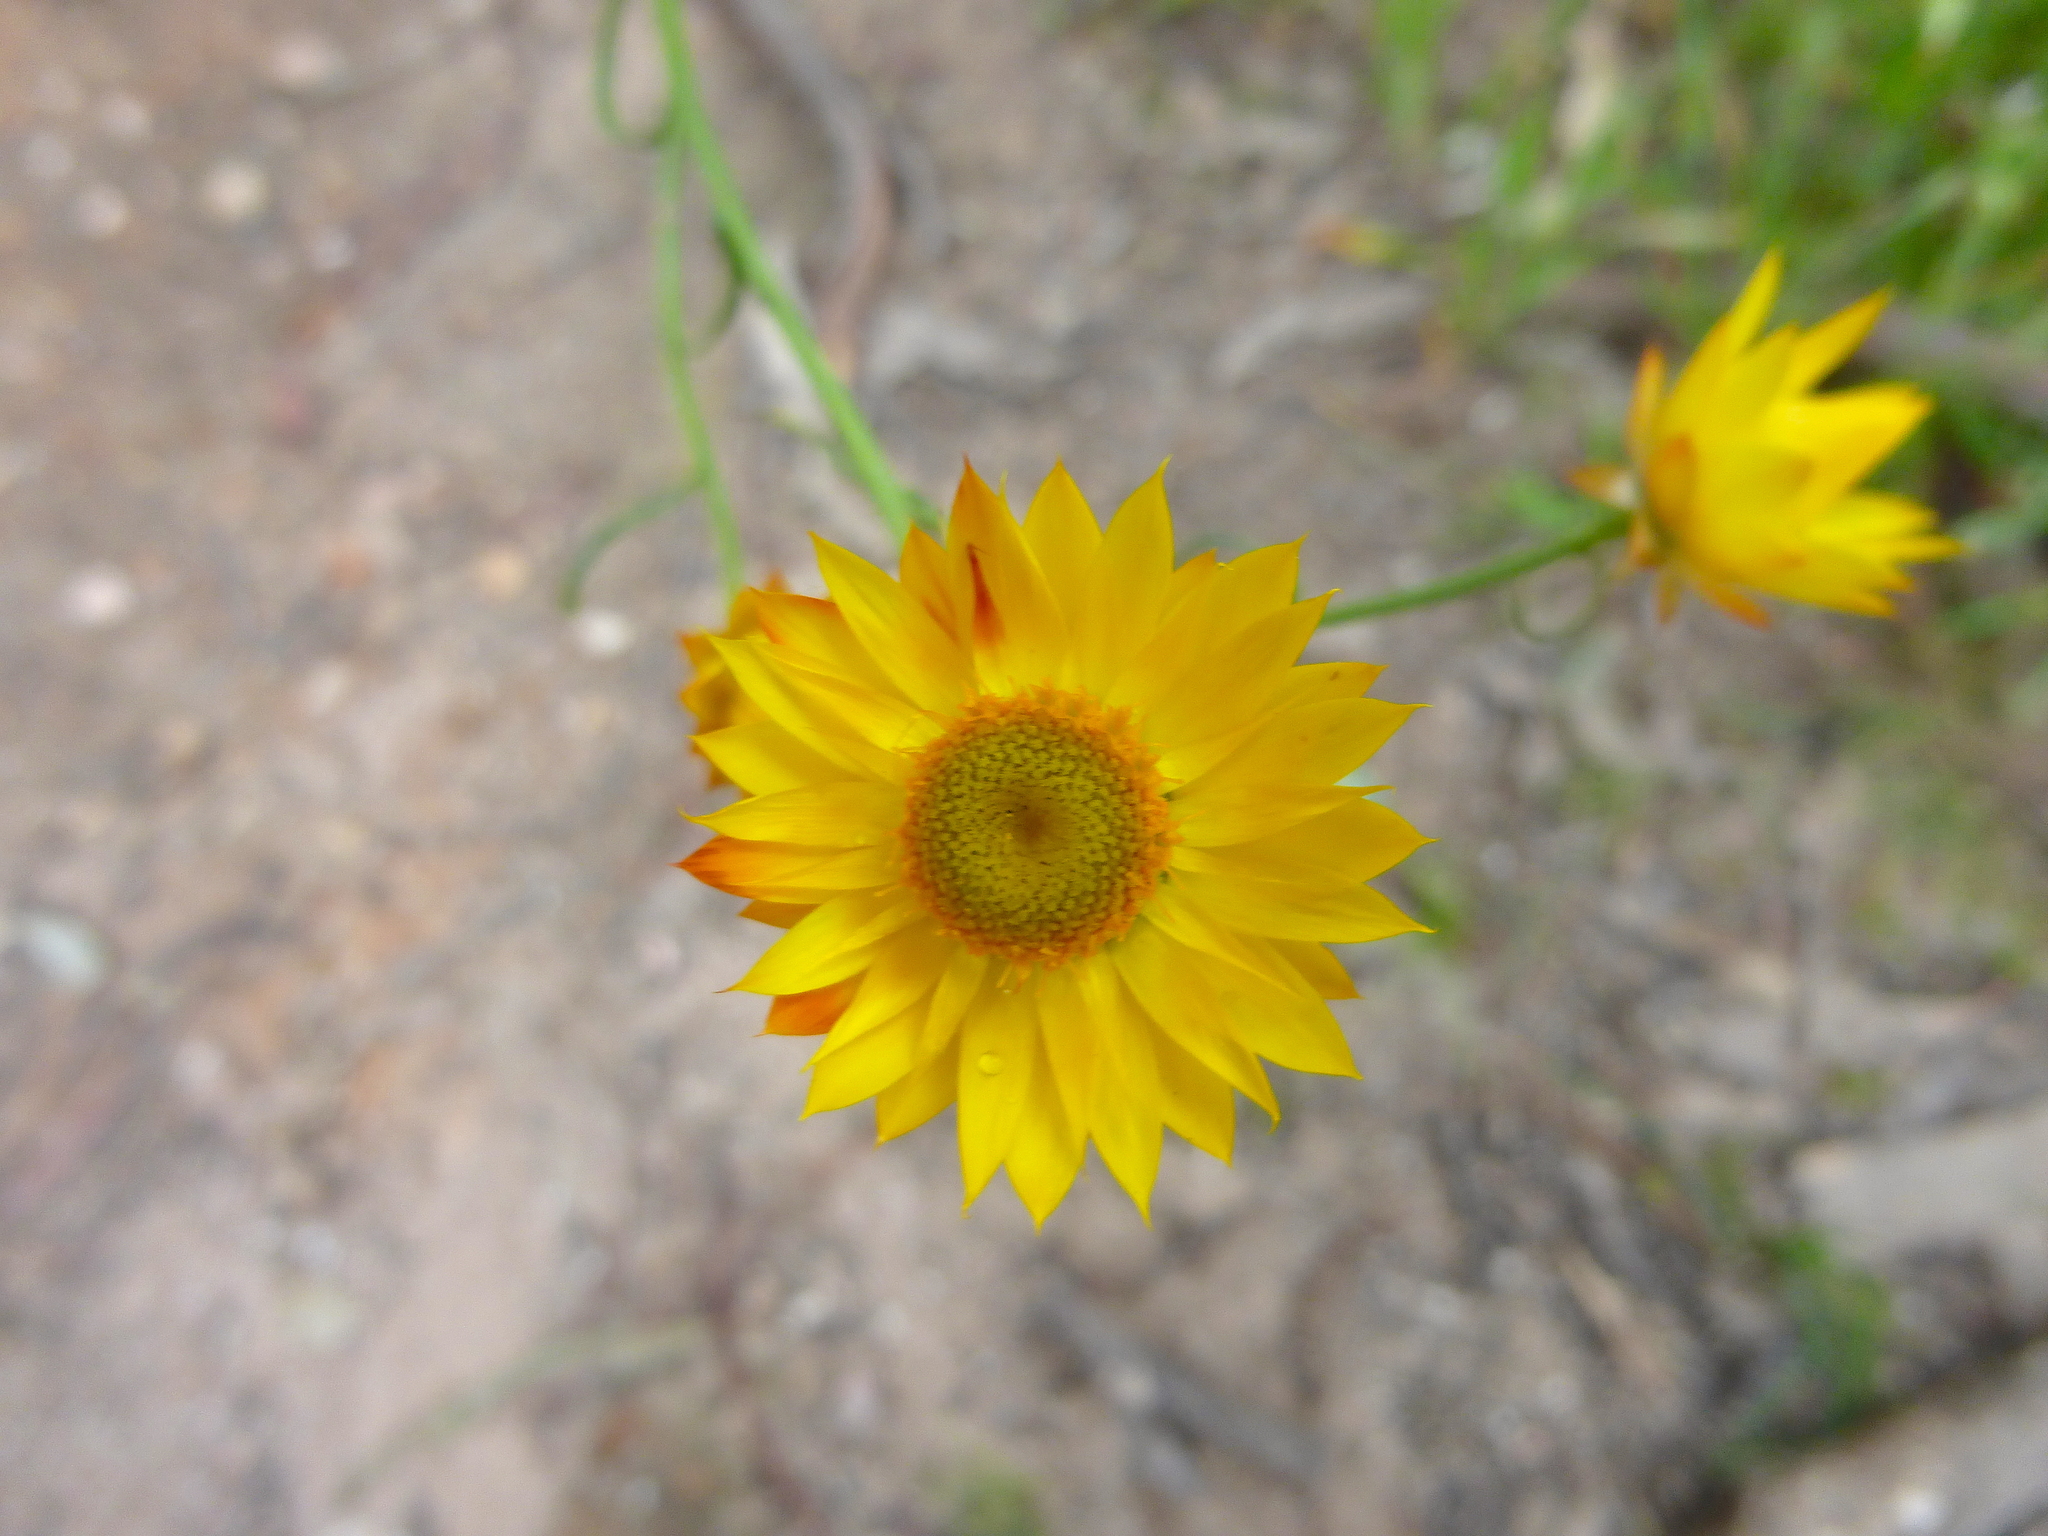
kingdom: Plantae
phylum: Tracheophyta
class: Magnoliopsida
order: Asterales
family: Asteraceae
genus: Xerochrysum
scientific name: Xerochrysum viscosum
